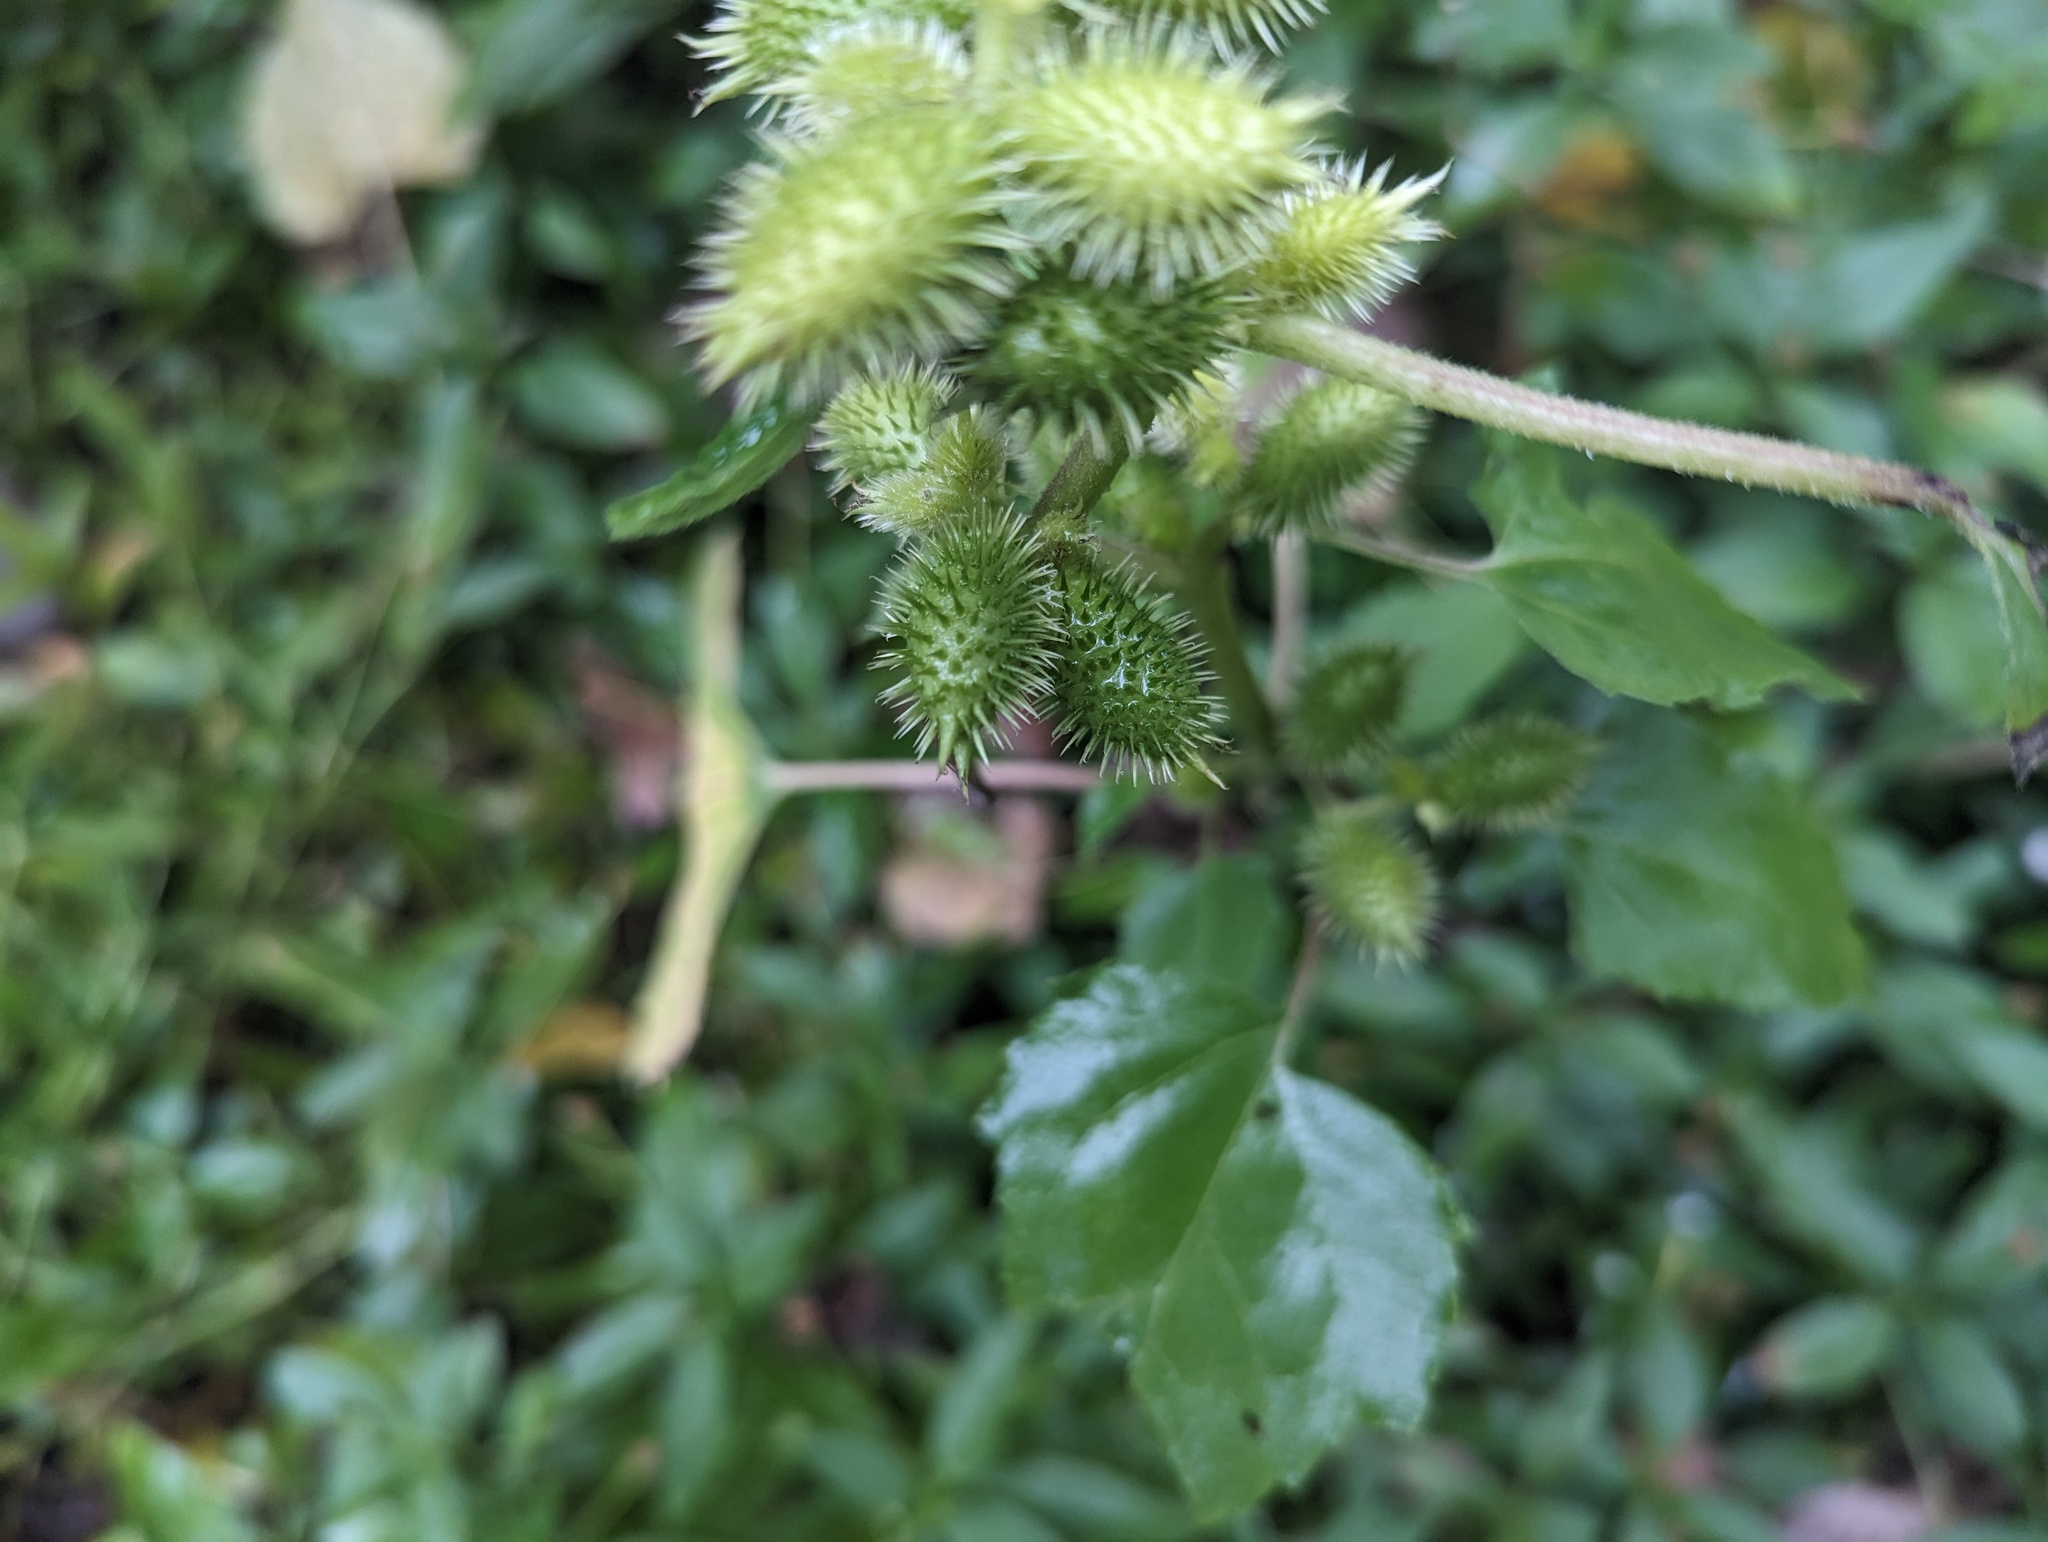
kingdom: Plantae
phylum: Tracheophyta
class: Magnoliopsida
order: Asterales
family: Asteraceae
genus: Xanthium
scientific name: Xanthium strumarium
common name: Rough cocklebur
